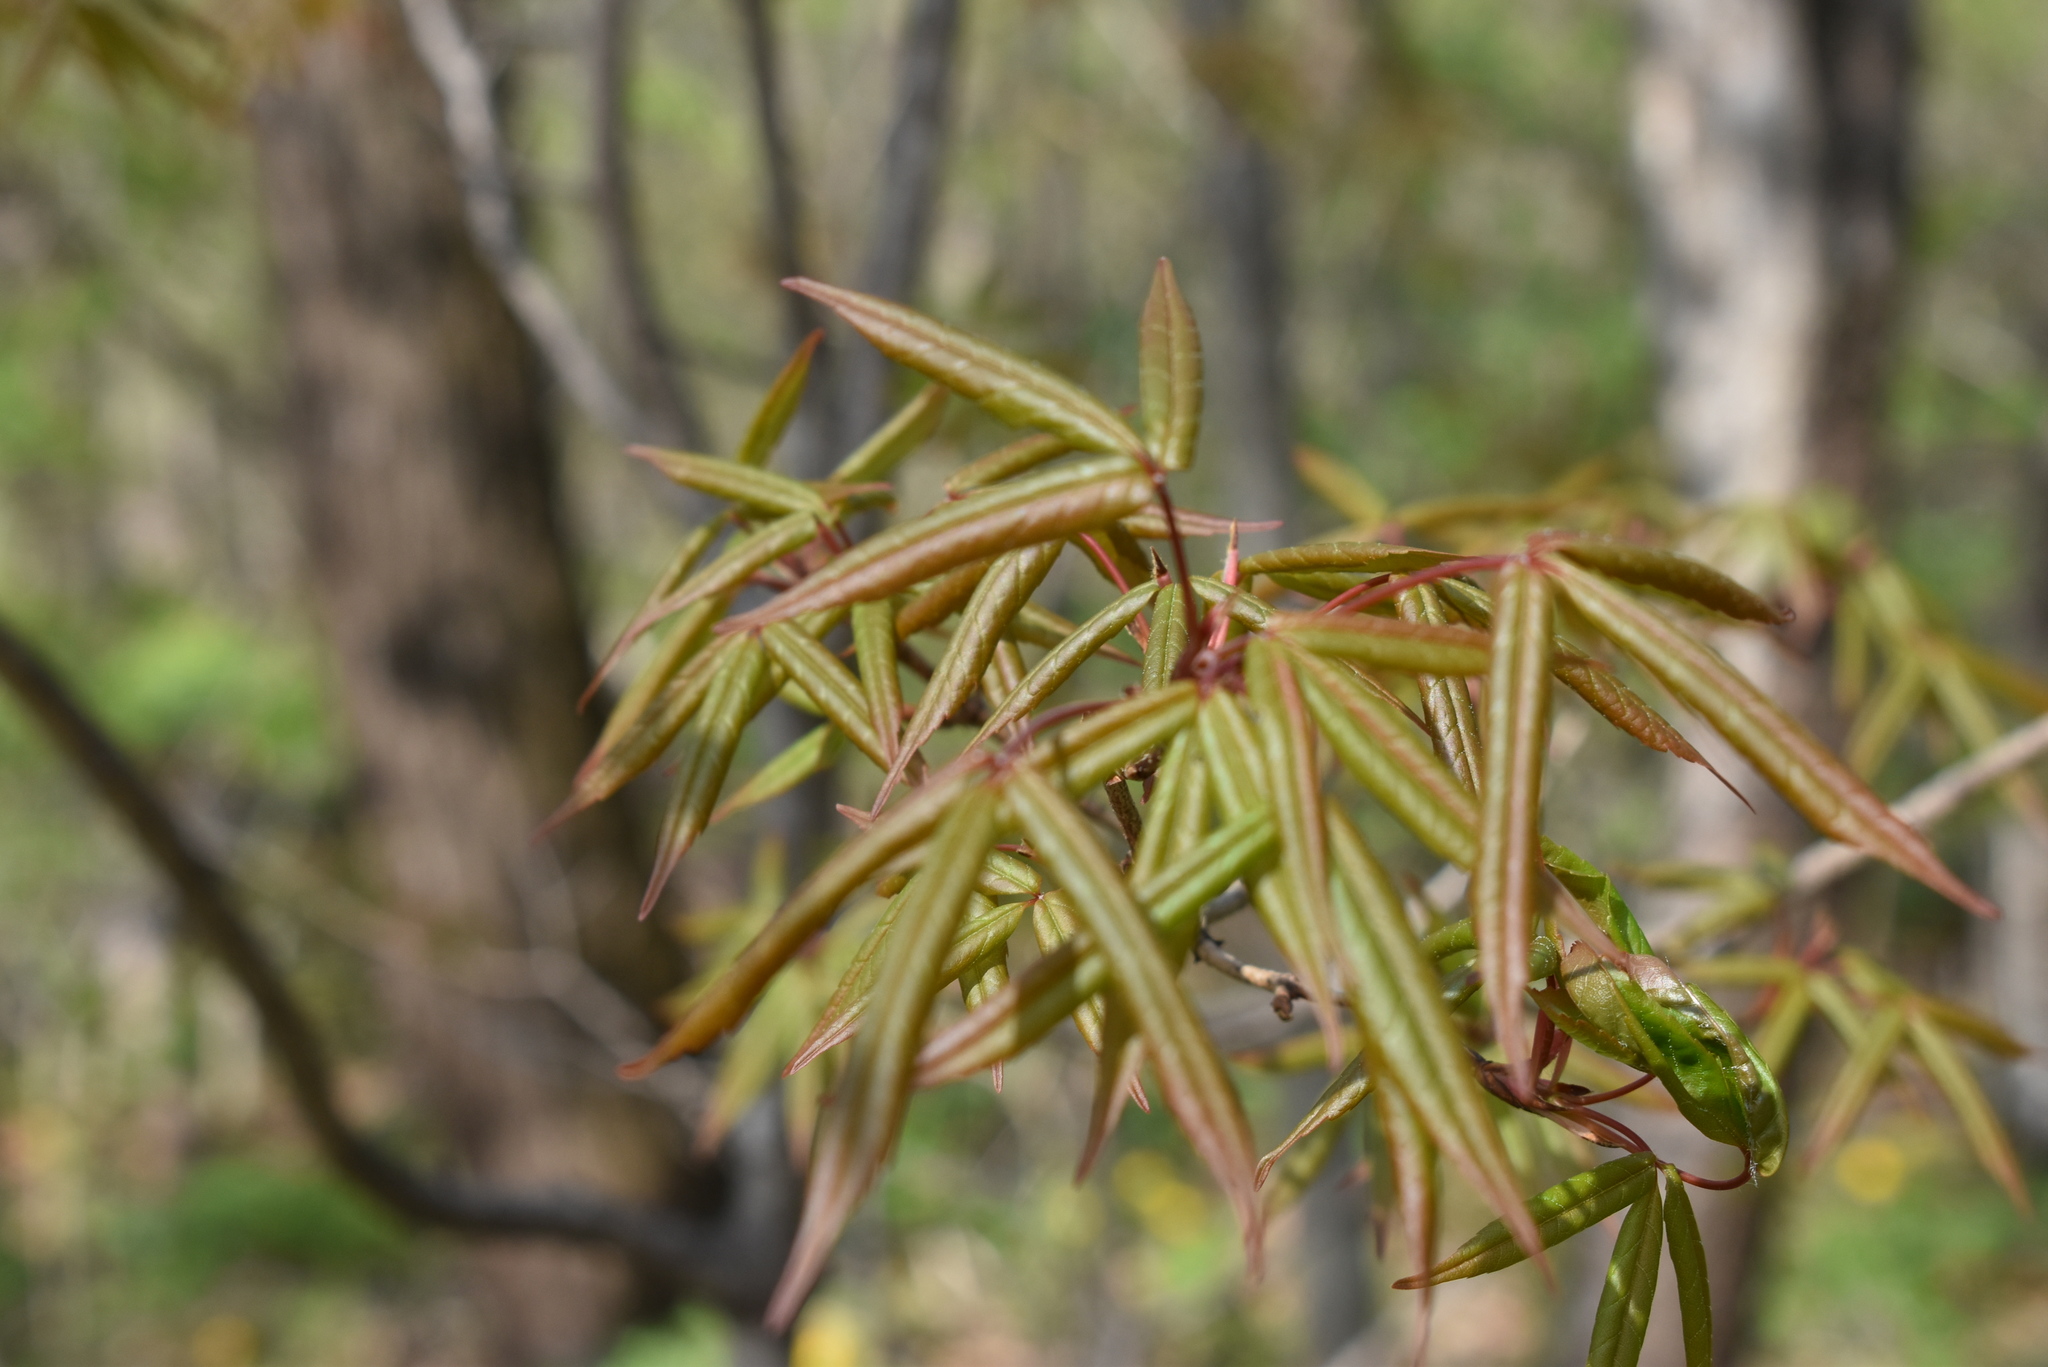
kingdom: Plantae
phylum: Tracheophyta
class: Magnoliopsida
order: Sapindales
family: Sapindaceae
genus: Acer
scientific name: Acer mandshuricum
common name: Manchurian maple
